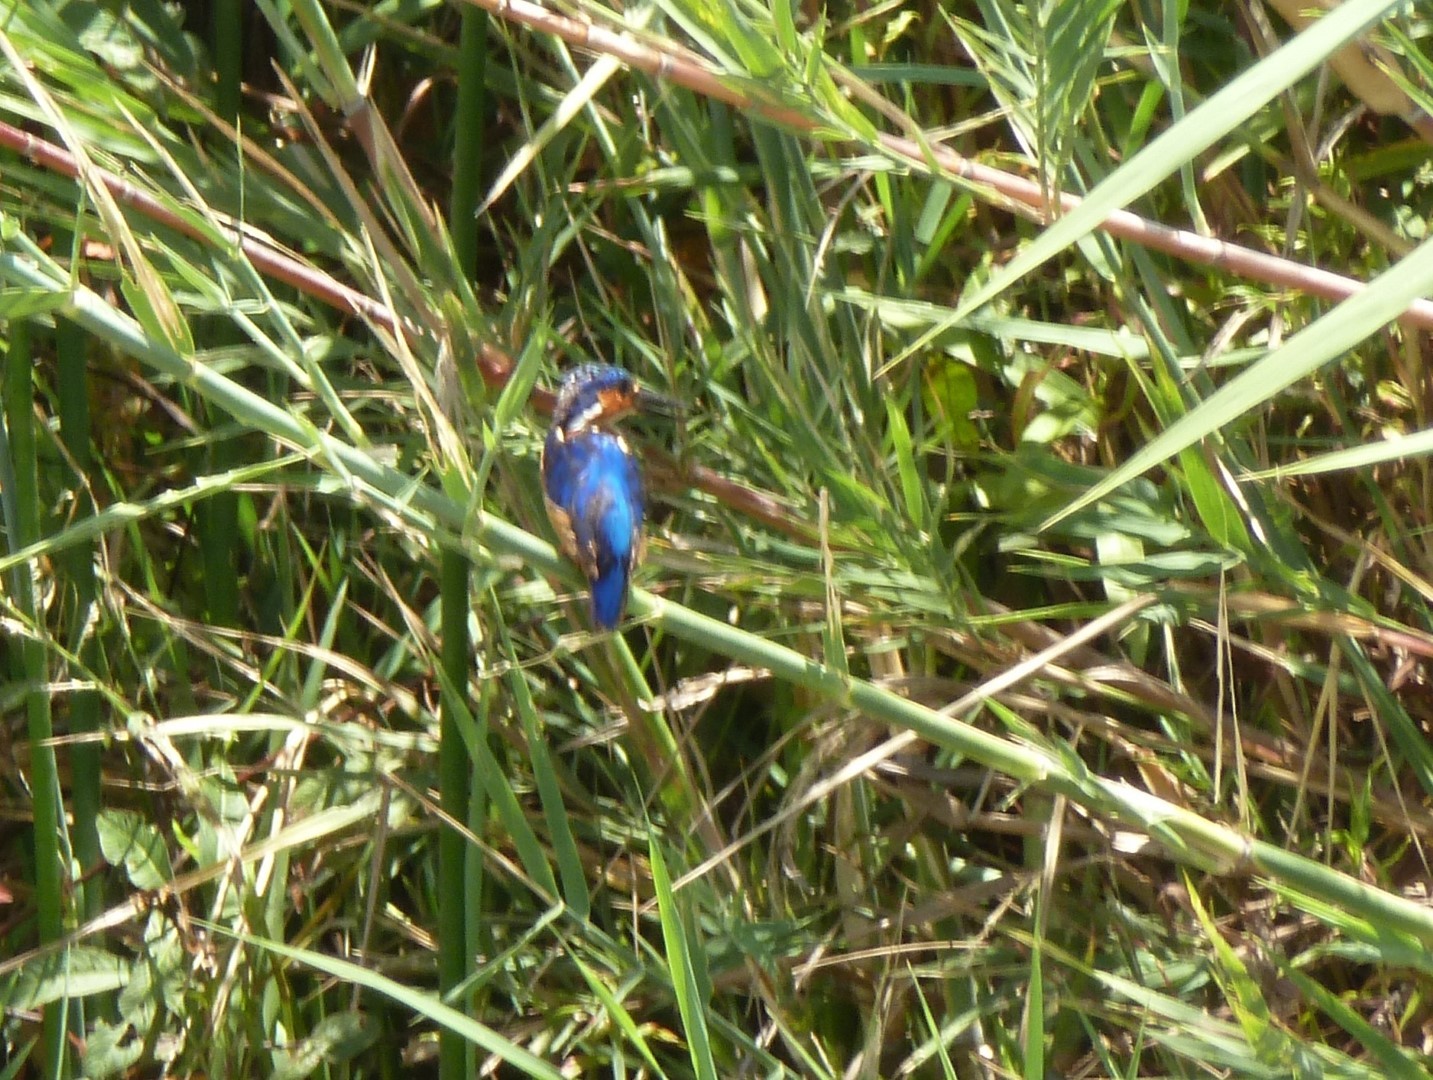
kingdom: Animalia
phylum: Chordata
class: Aves
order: Coraciiformes
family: Alcedinidae
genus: Corythornis
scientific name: Corythornis vintsioides
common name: Malagasy kingfisher
